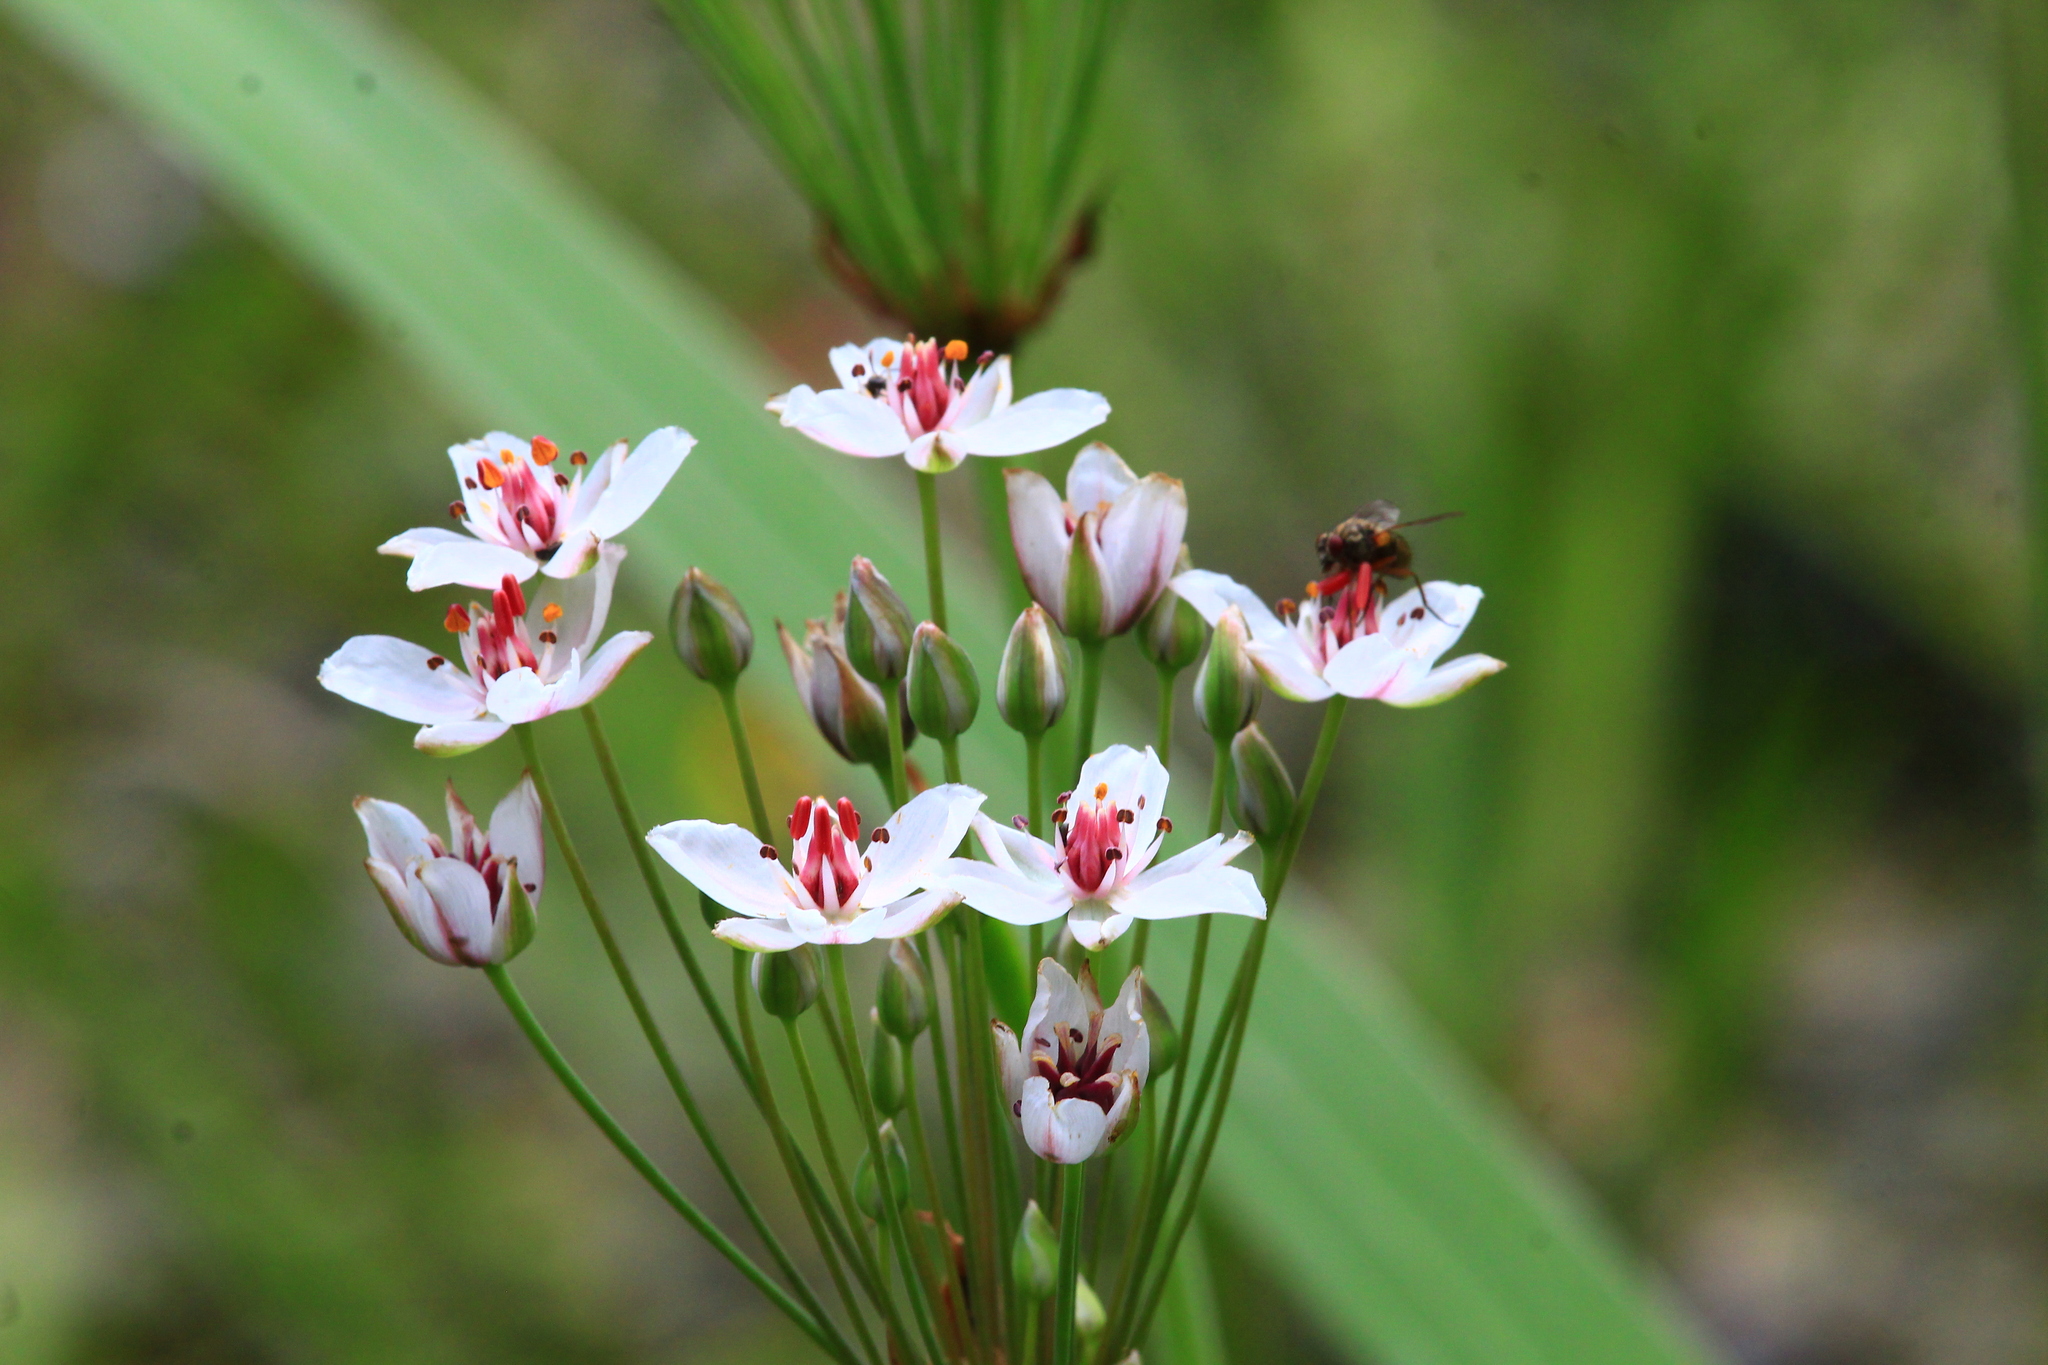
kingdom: Plantae
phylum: Tracheophyta
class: Liliopsida
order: Alismatales
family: Butomaceae
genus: Butomus
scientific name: Butomus umbellatus
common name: Flowering-rush
